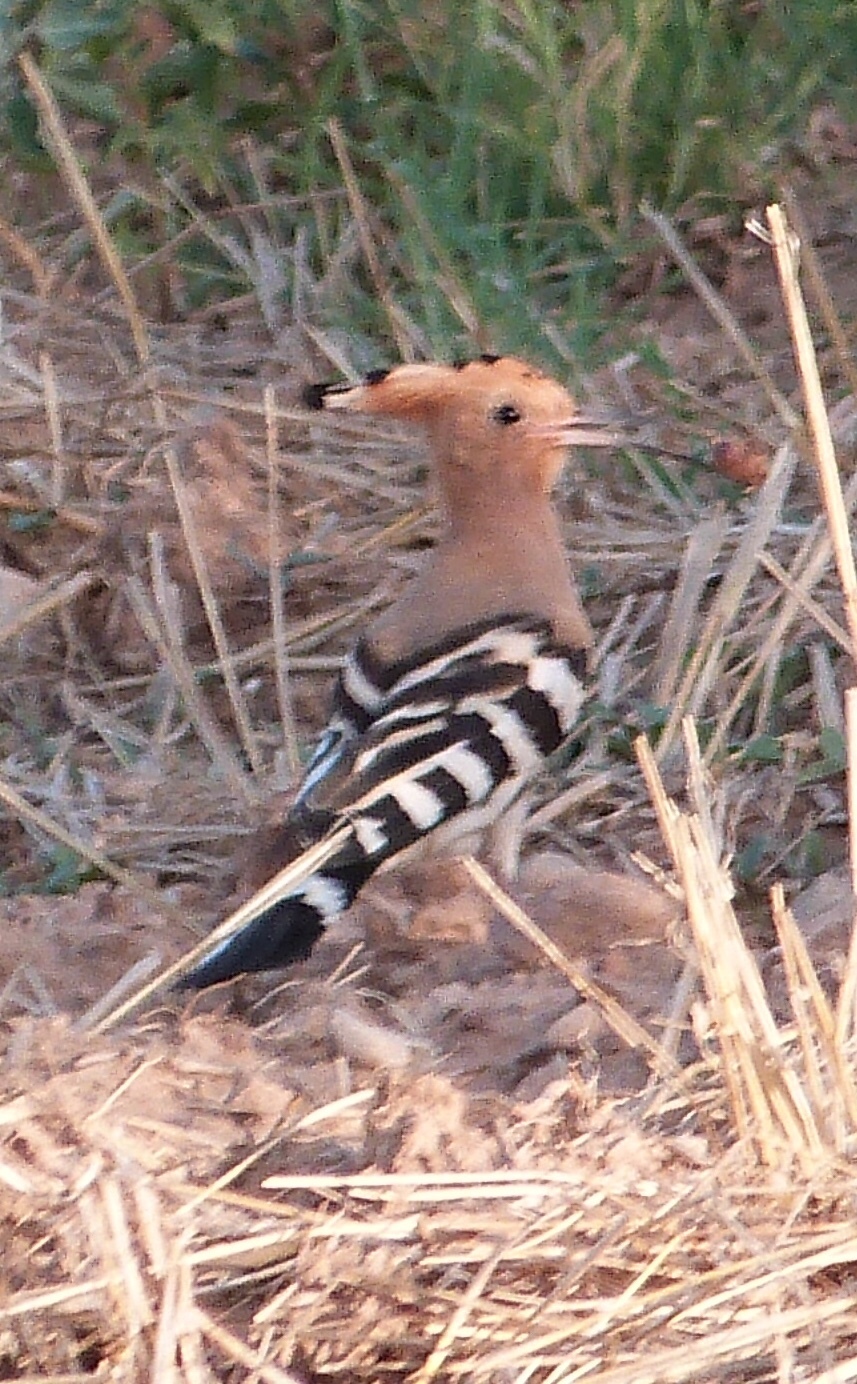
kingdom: Animalia
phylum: Chordata
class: Aves
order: Bucerotiformes
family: Upupidae
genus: Upupa
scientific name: Upupa epops
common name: Eurasian hoopoe
